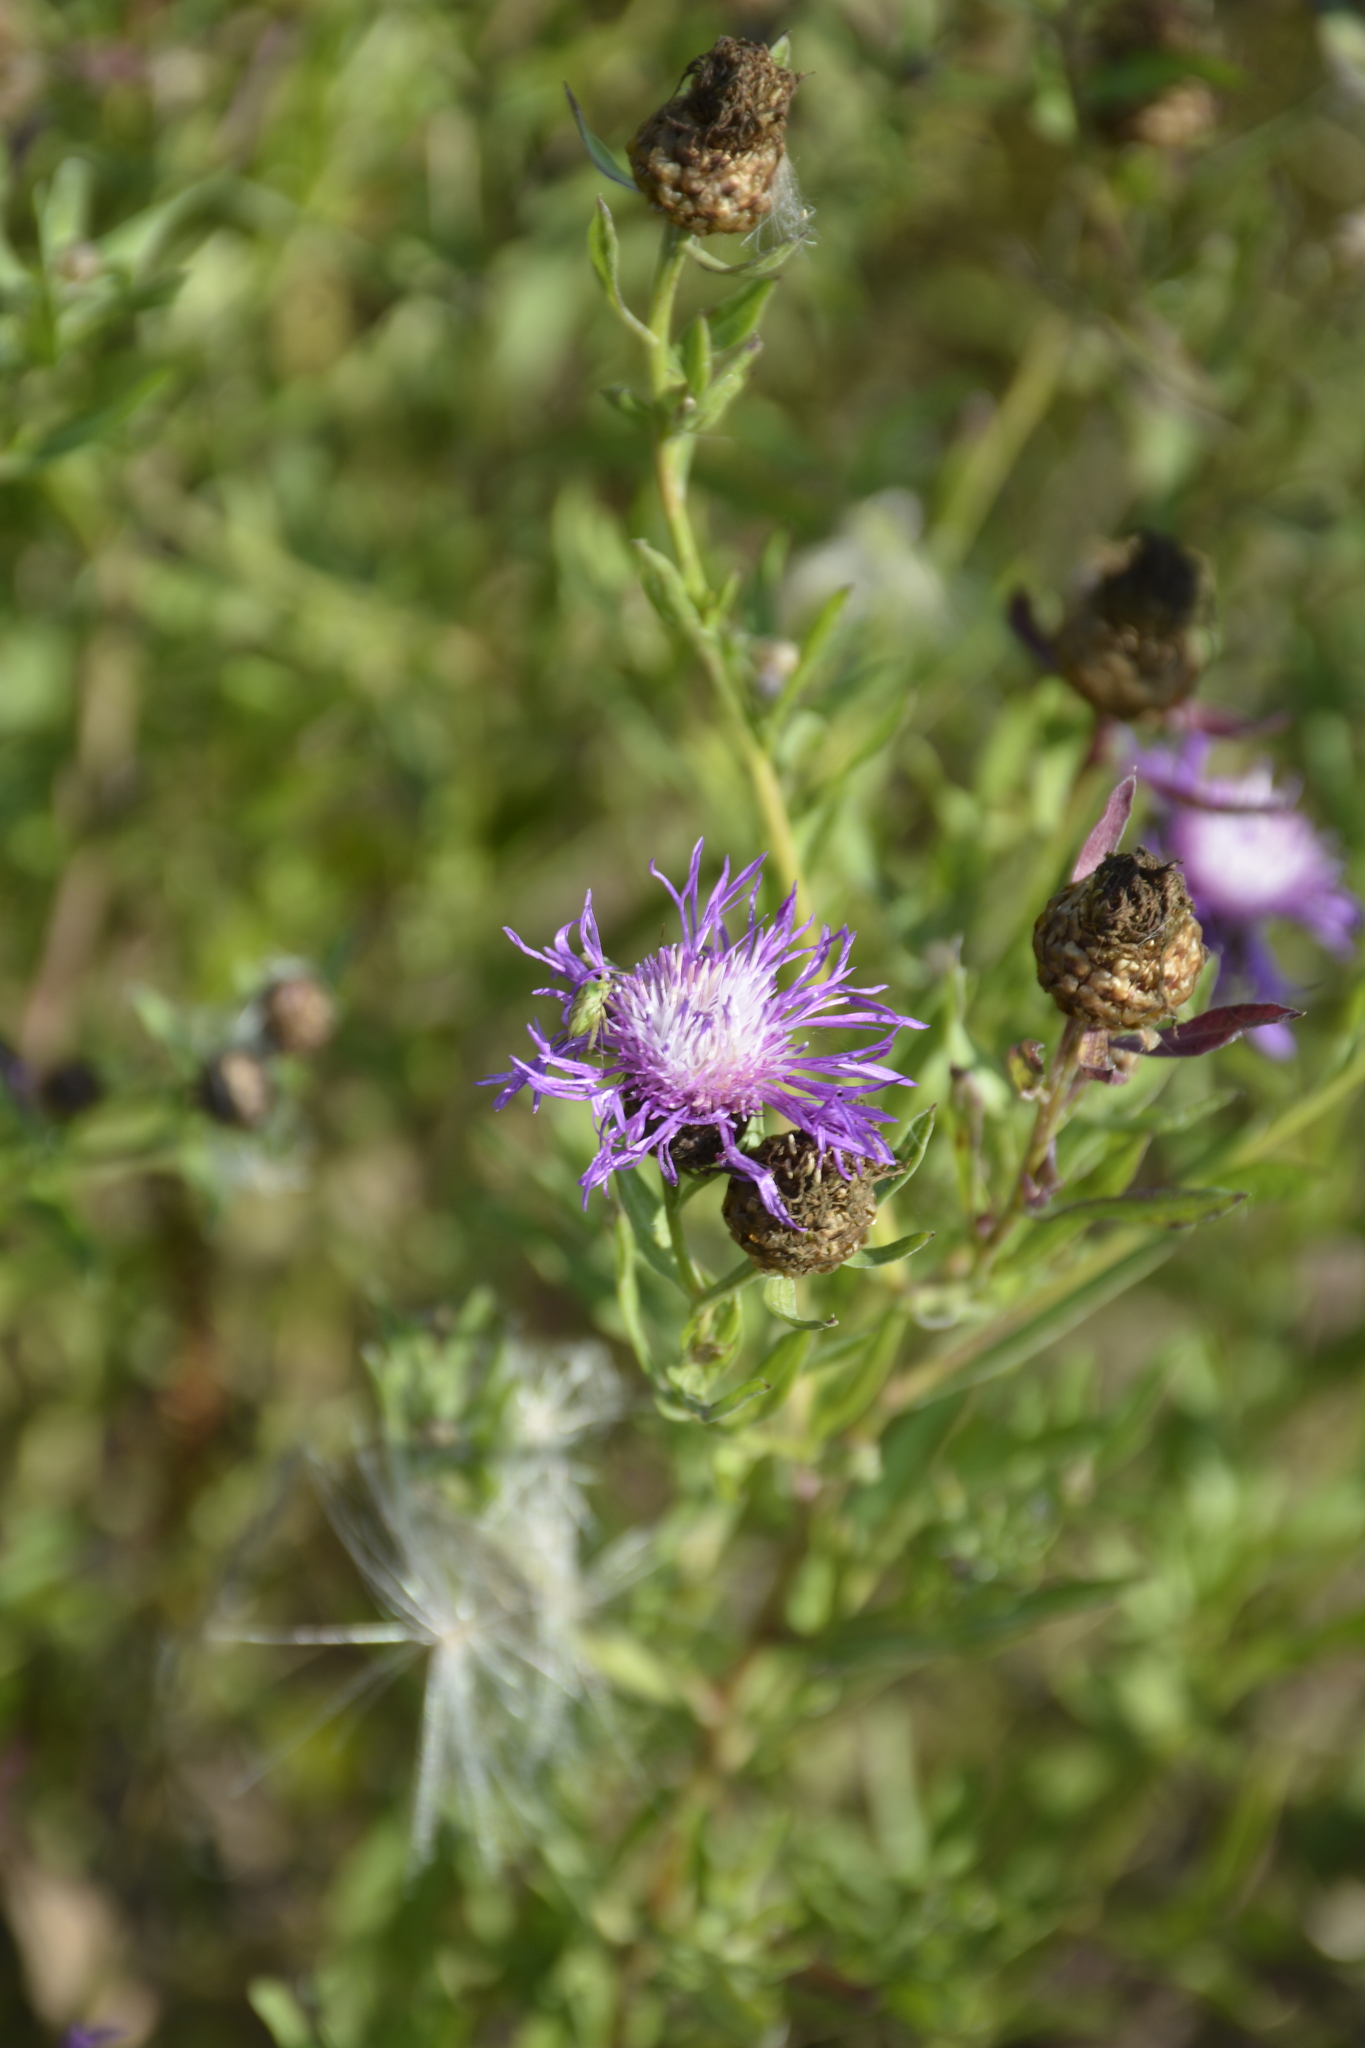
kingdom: Plantae
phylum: Tracheophyta
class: Magnoliopsida
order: Asterales
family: Asteraceae
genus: Centaurea
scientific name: Centaurea jacea
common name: Brown knapweed
